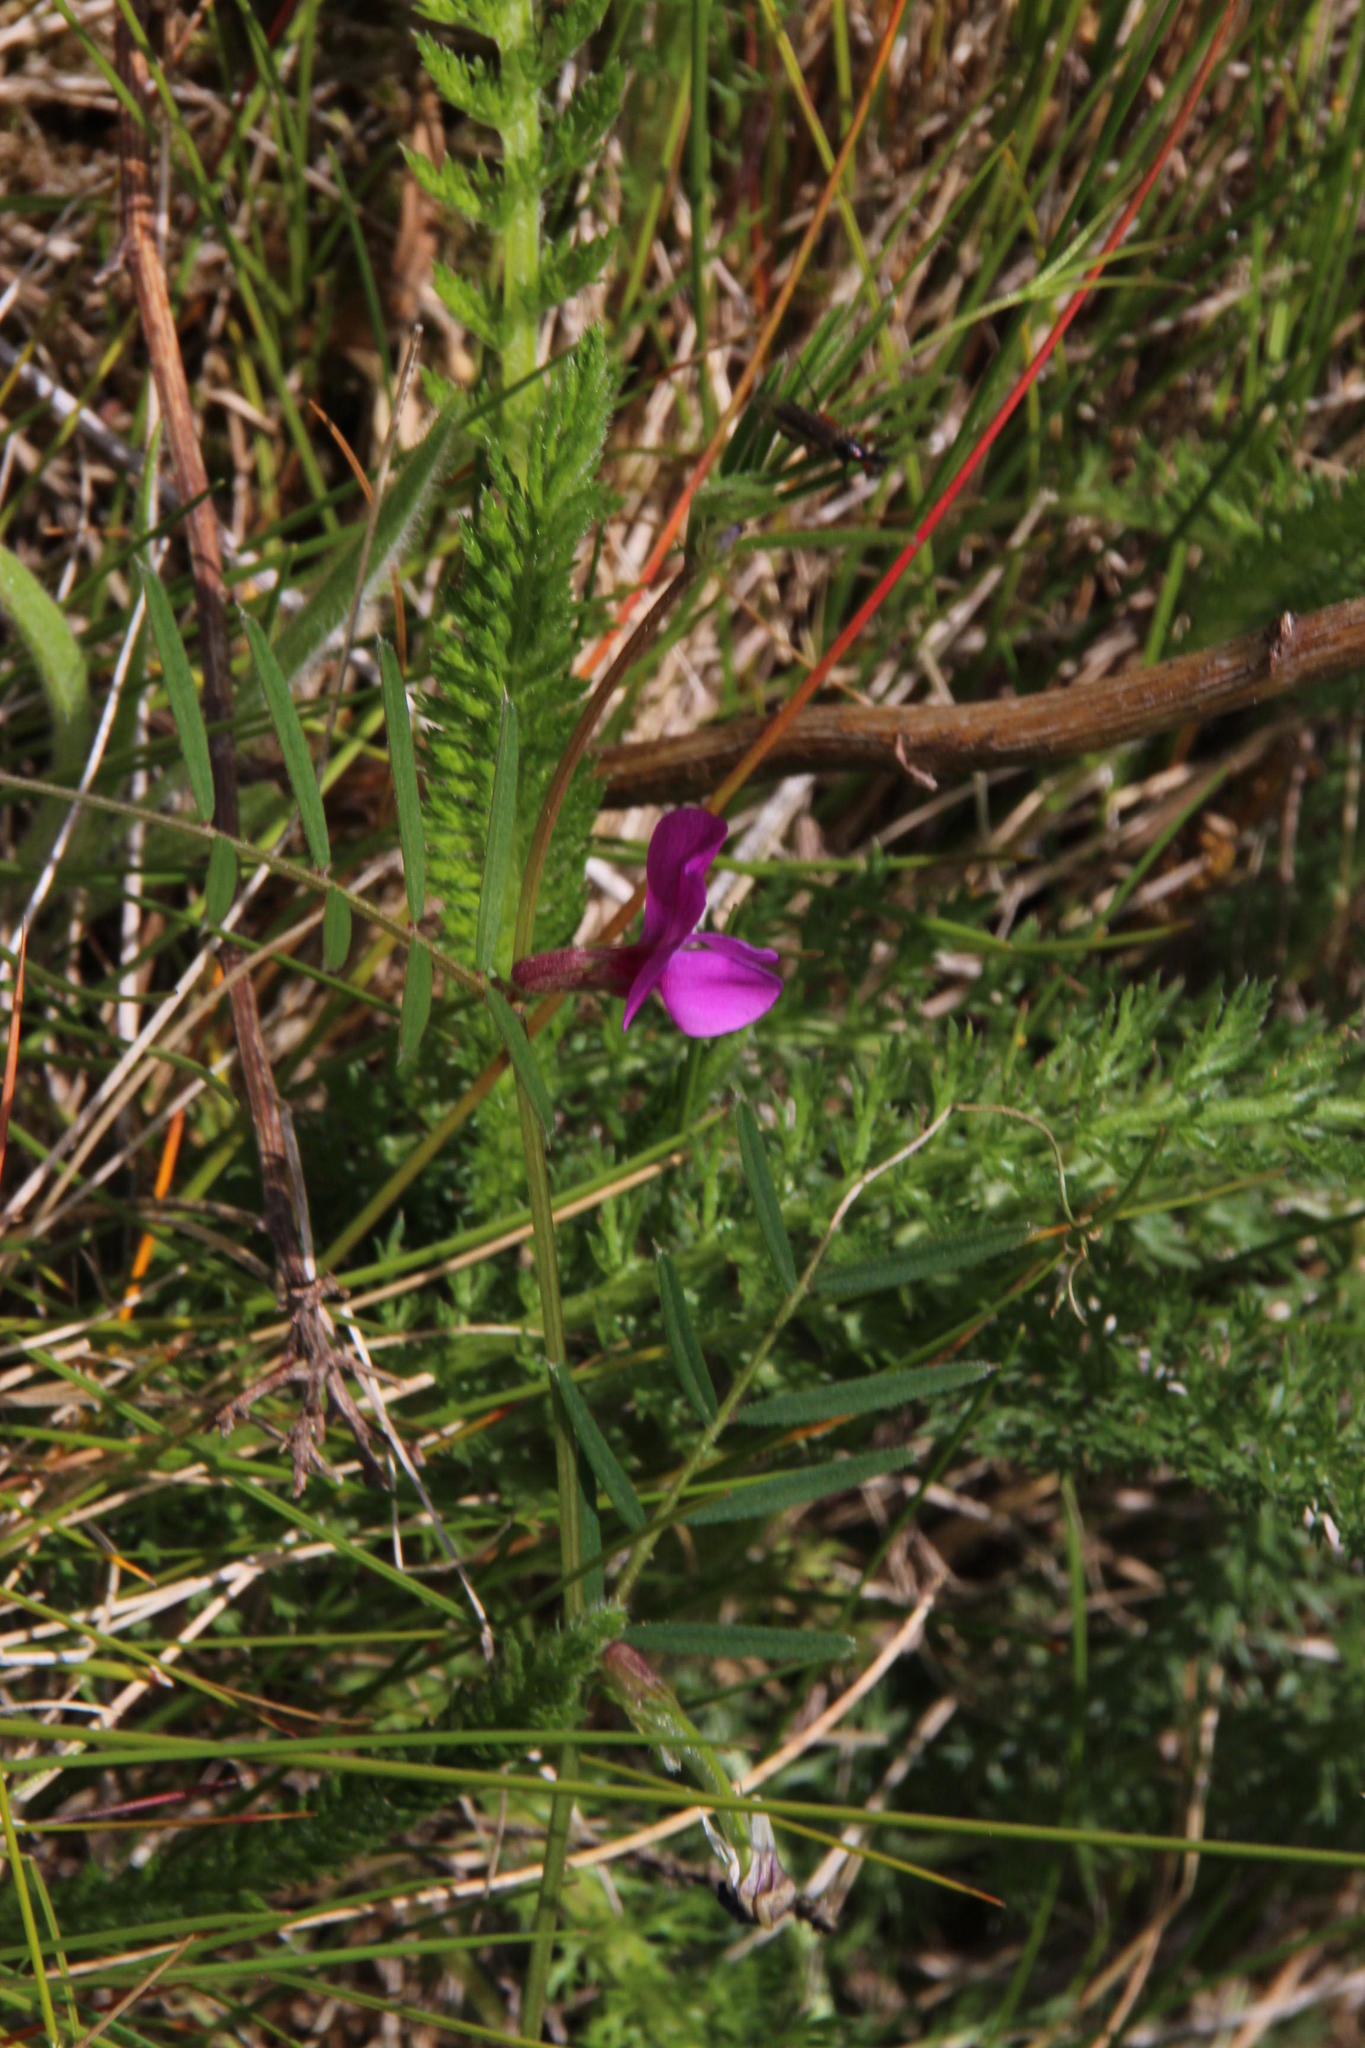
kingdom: Plantae
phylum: Tracheophyta
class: Magnoliopsida
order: Fabales
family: Fabaceae
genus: Vicia
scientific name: Vicia sativa
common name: Garden vetch
